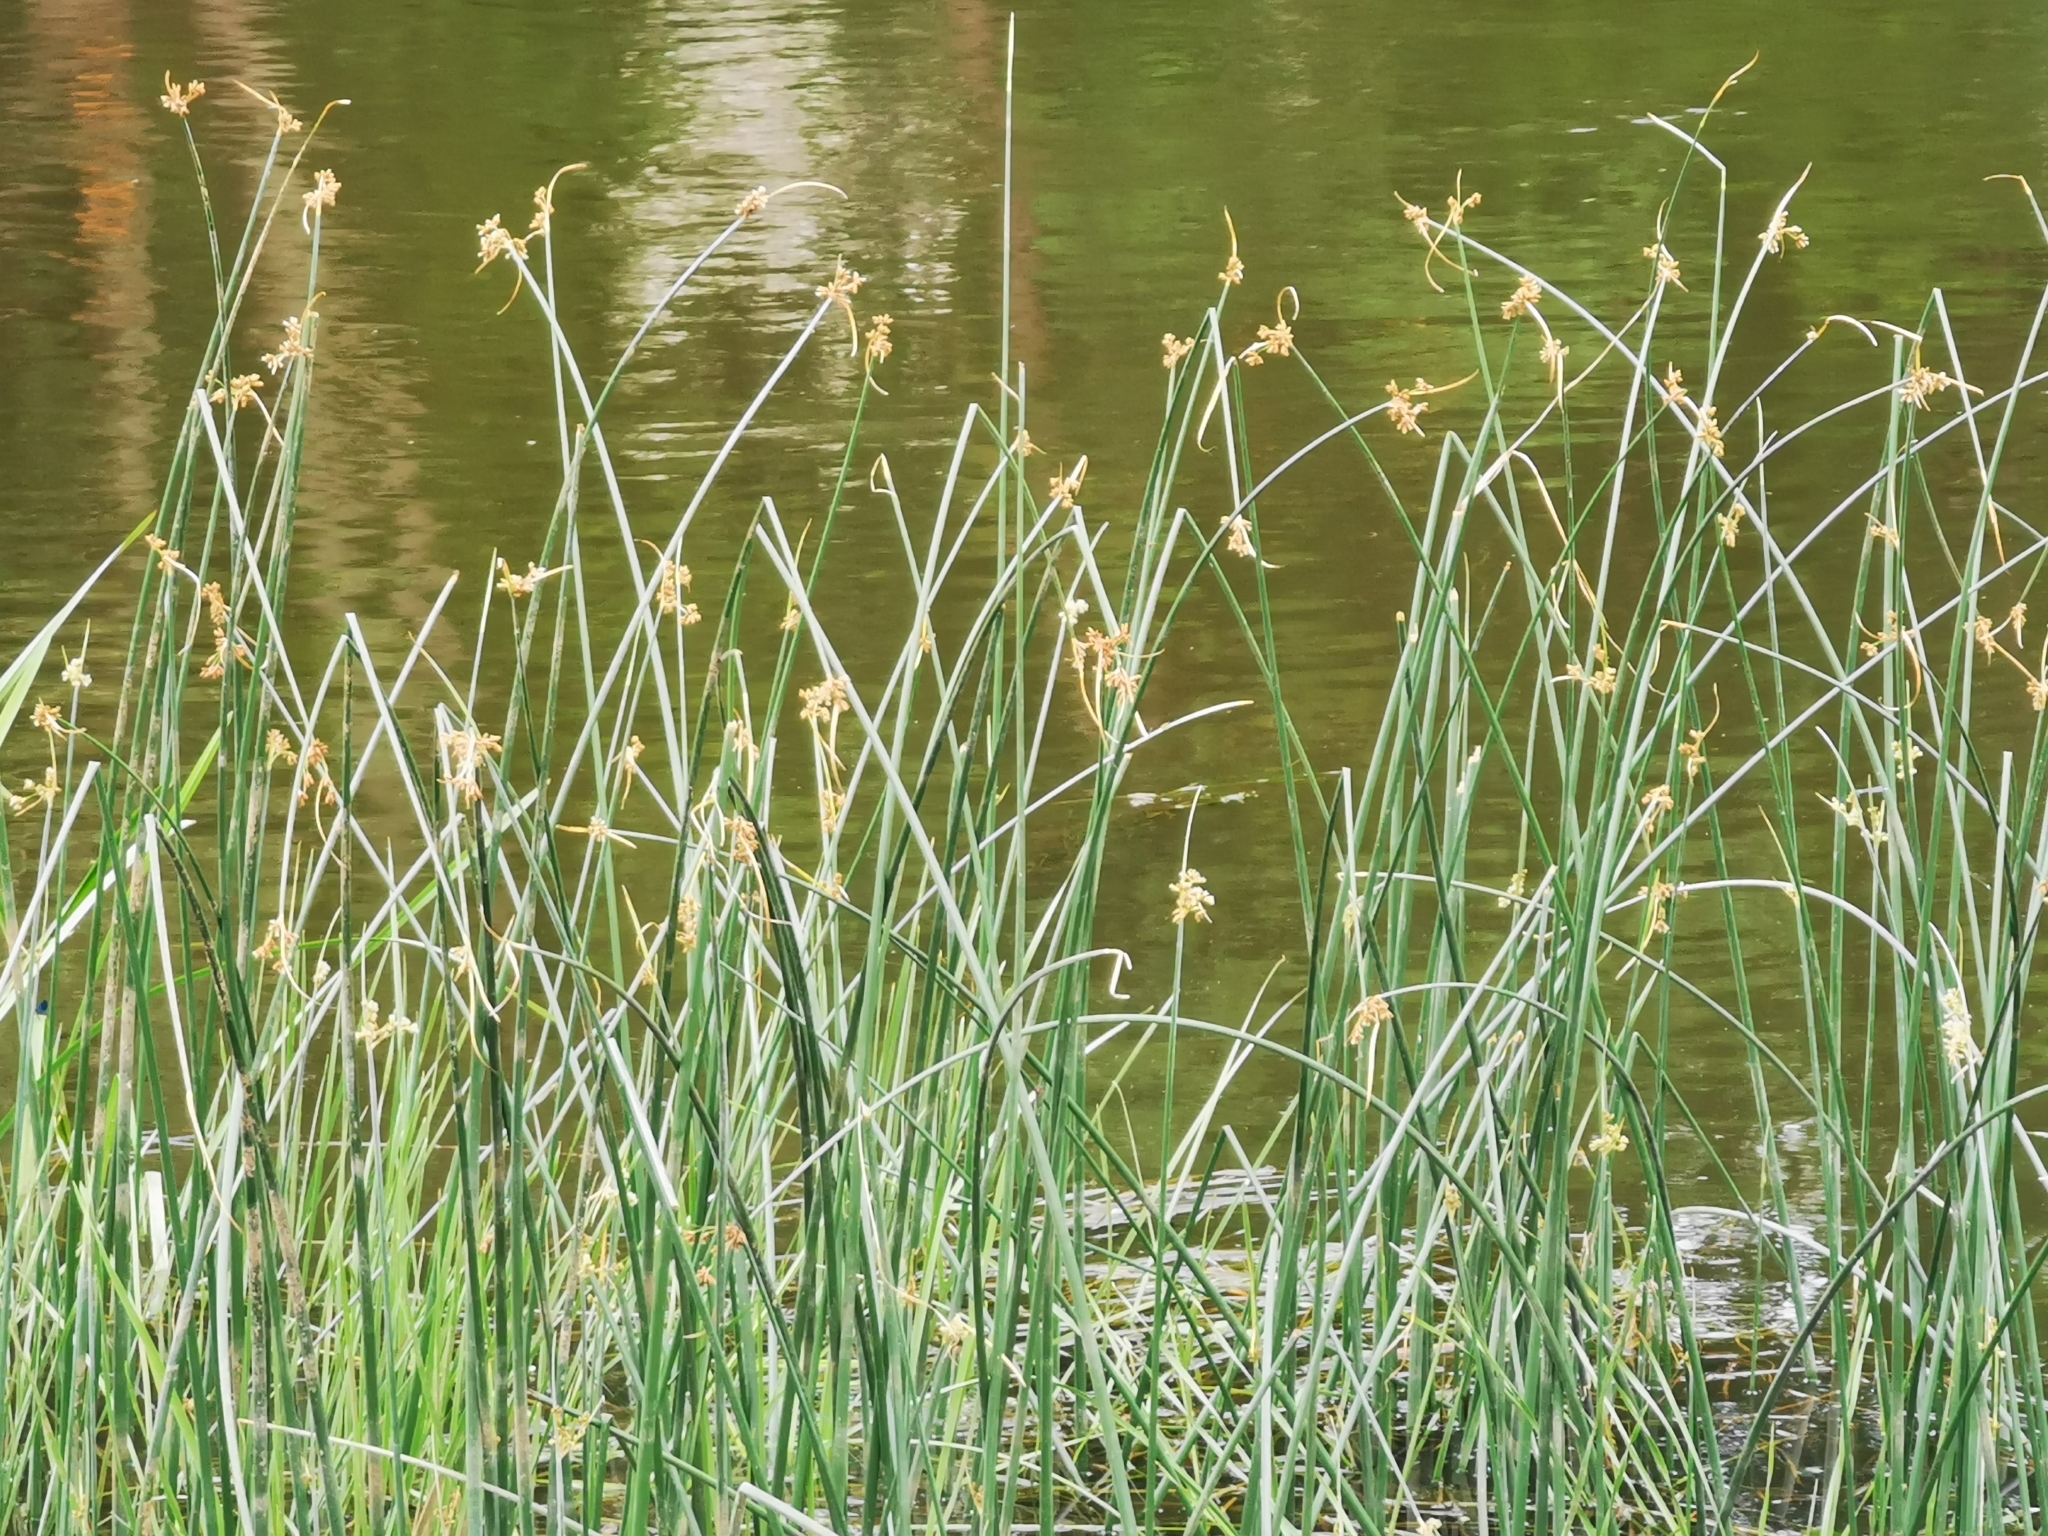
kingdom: Plantae
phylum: Tracheophyta
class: Liliopsida
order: Poales
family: Cyperaceae
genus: Schoenoplectus
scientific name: Schoenoplectus lacustris
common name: Common club-rush
